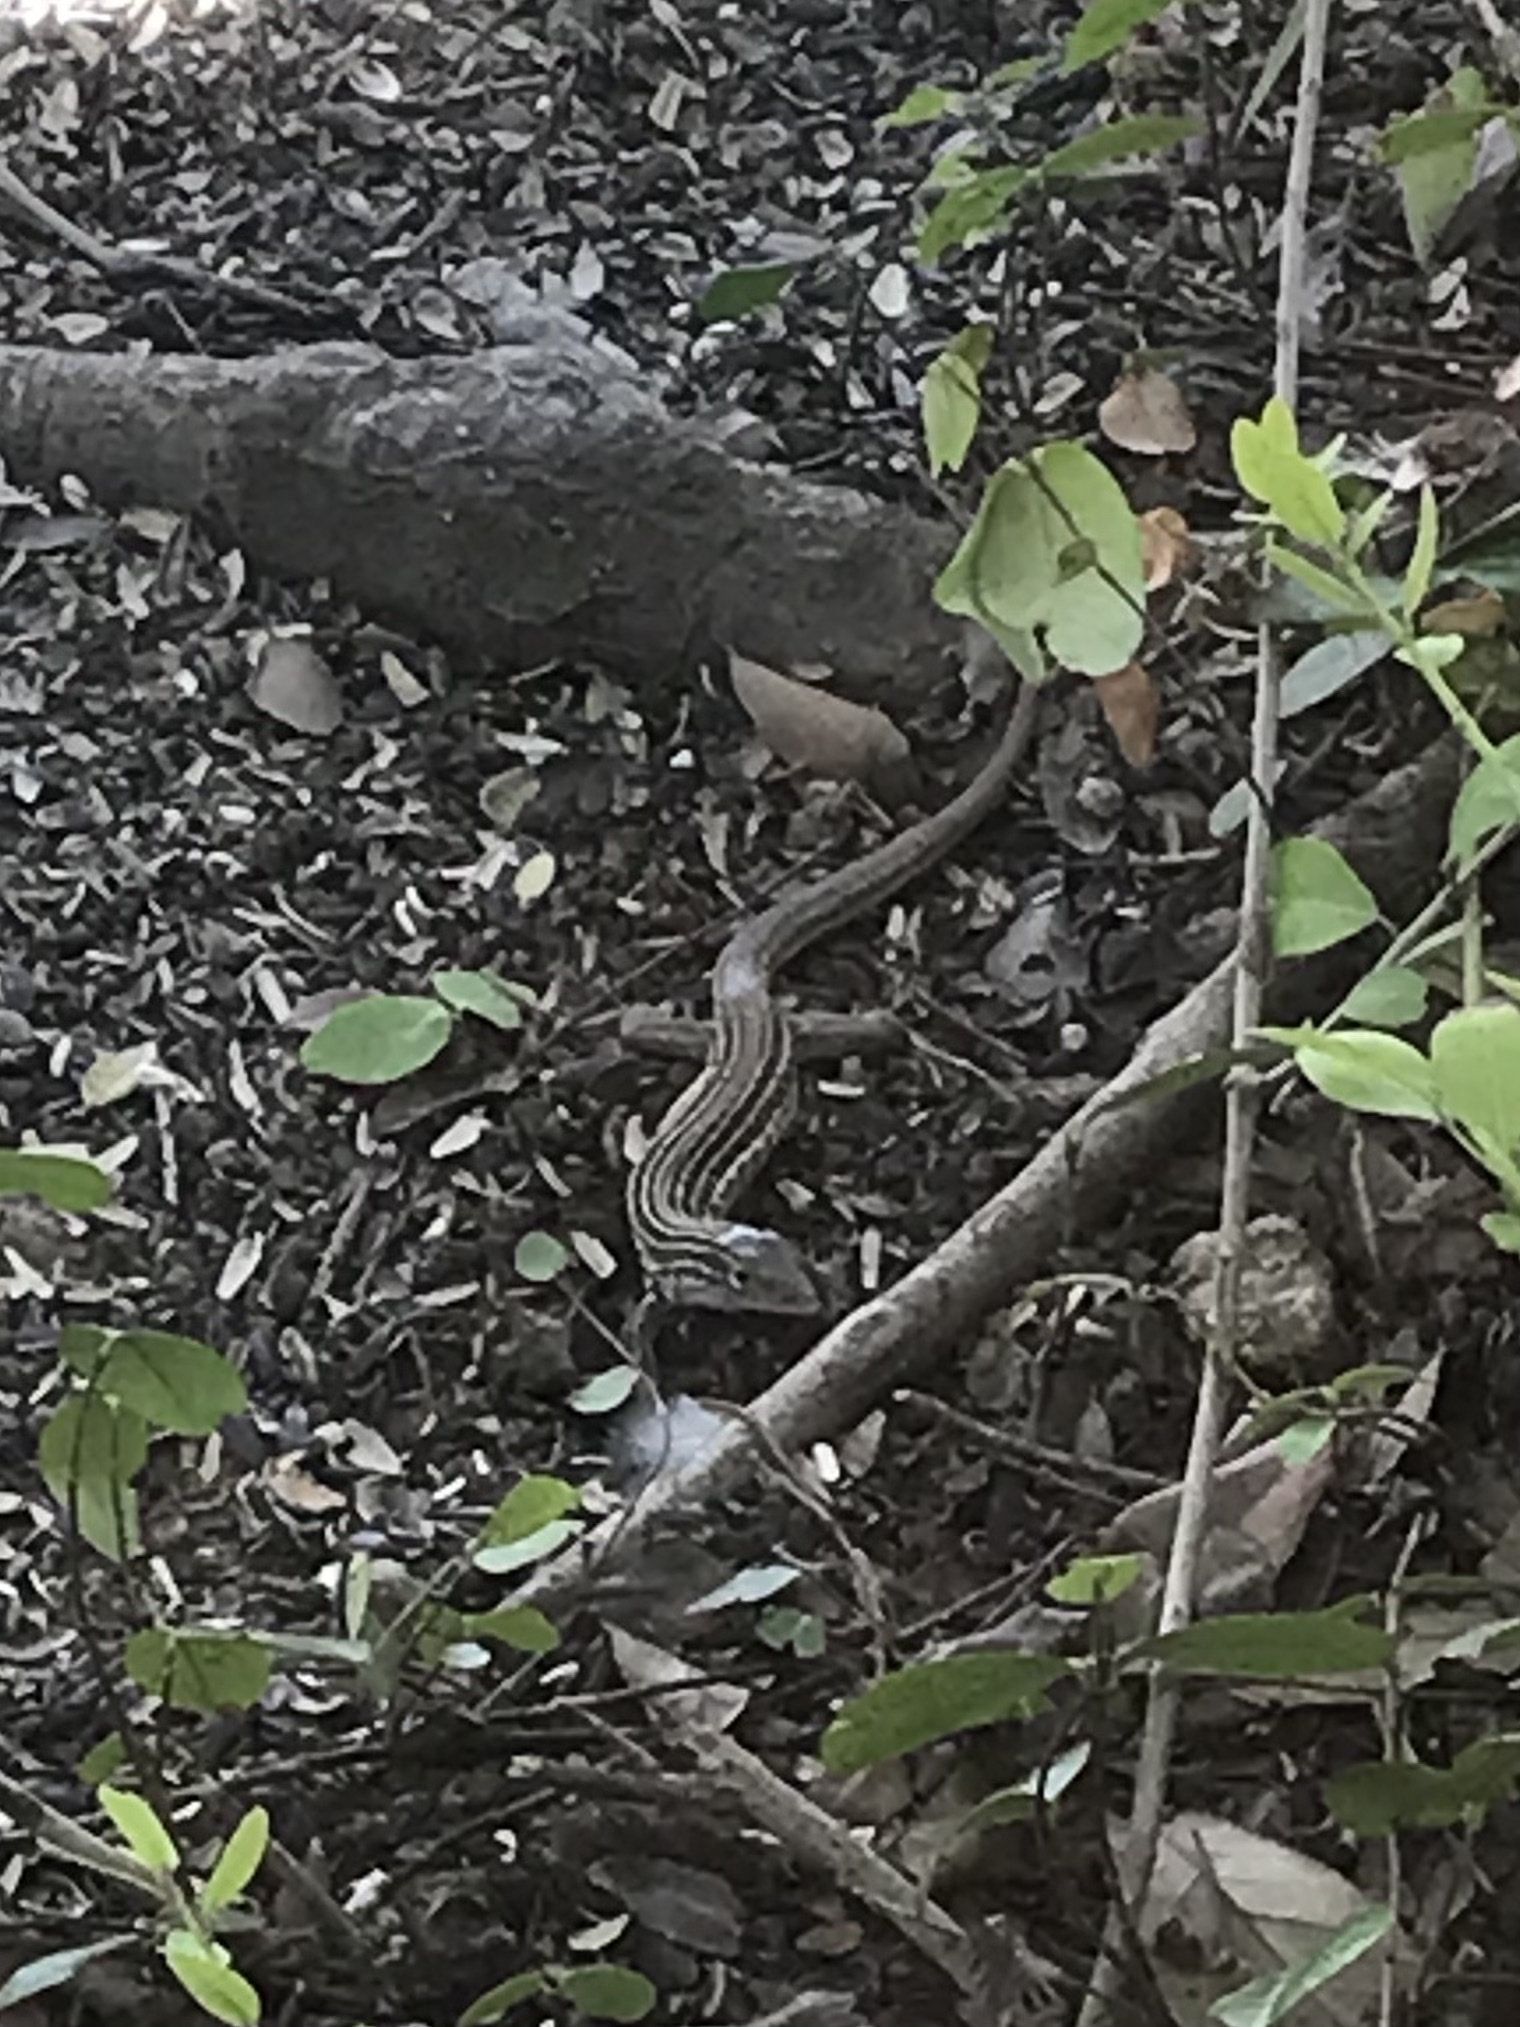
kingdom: Animalia
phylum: Chordata
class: Squamata
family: Teiidae
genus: Aspidoscelis
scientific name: Aspidoscelis gularis
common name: Eastern spotted whiptail
